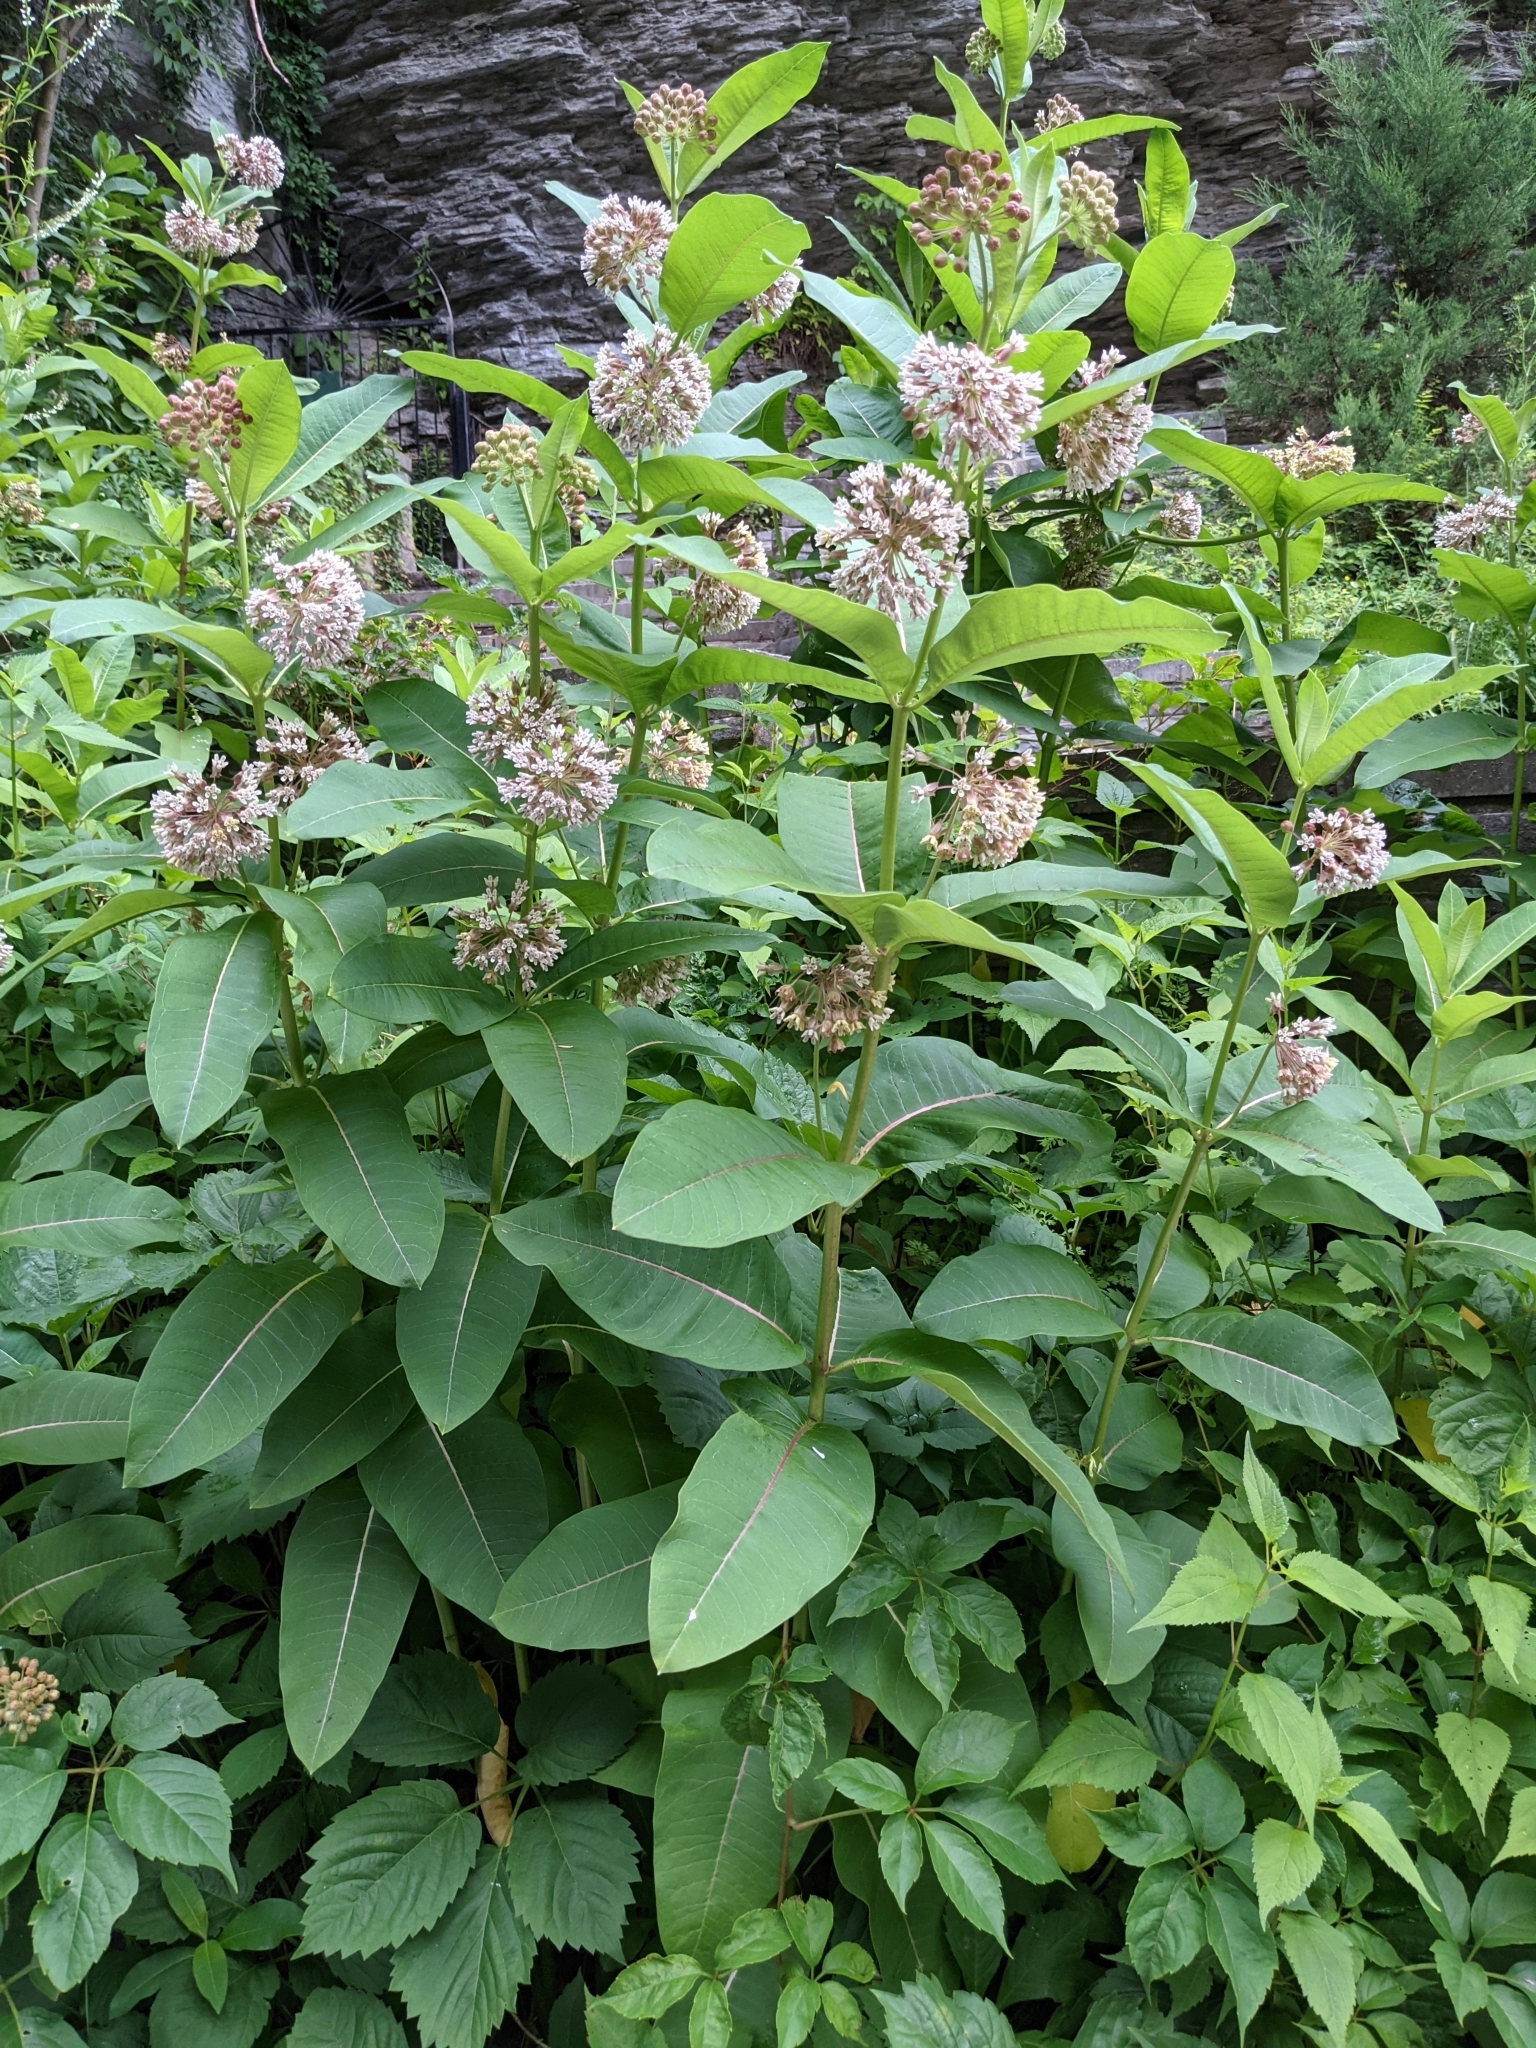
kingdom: Plantae
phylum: Tracheophyta
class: Magnoliopsida
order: Gentianales
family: Apocynaceae
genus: Asclepias
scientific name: Asclepias syriaca
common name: Common milkweed
